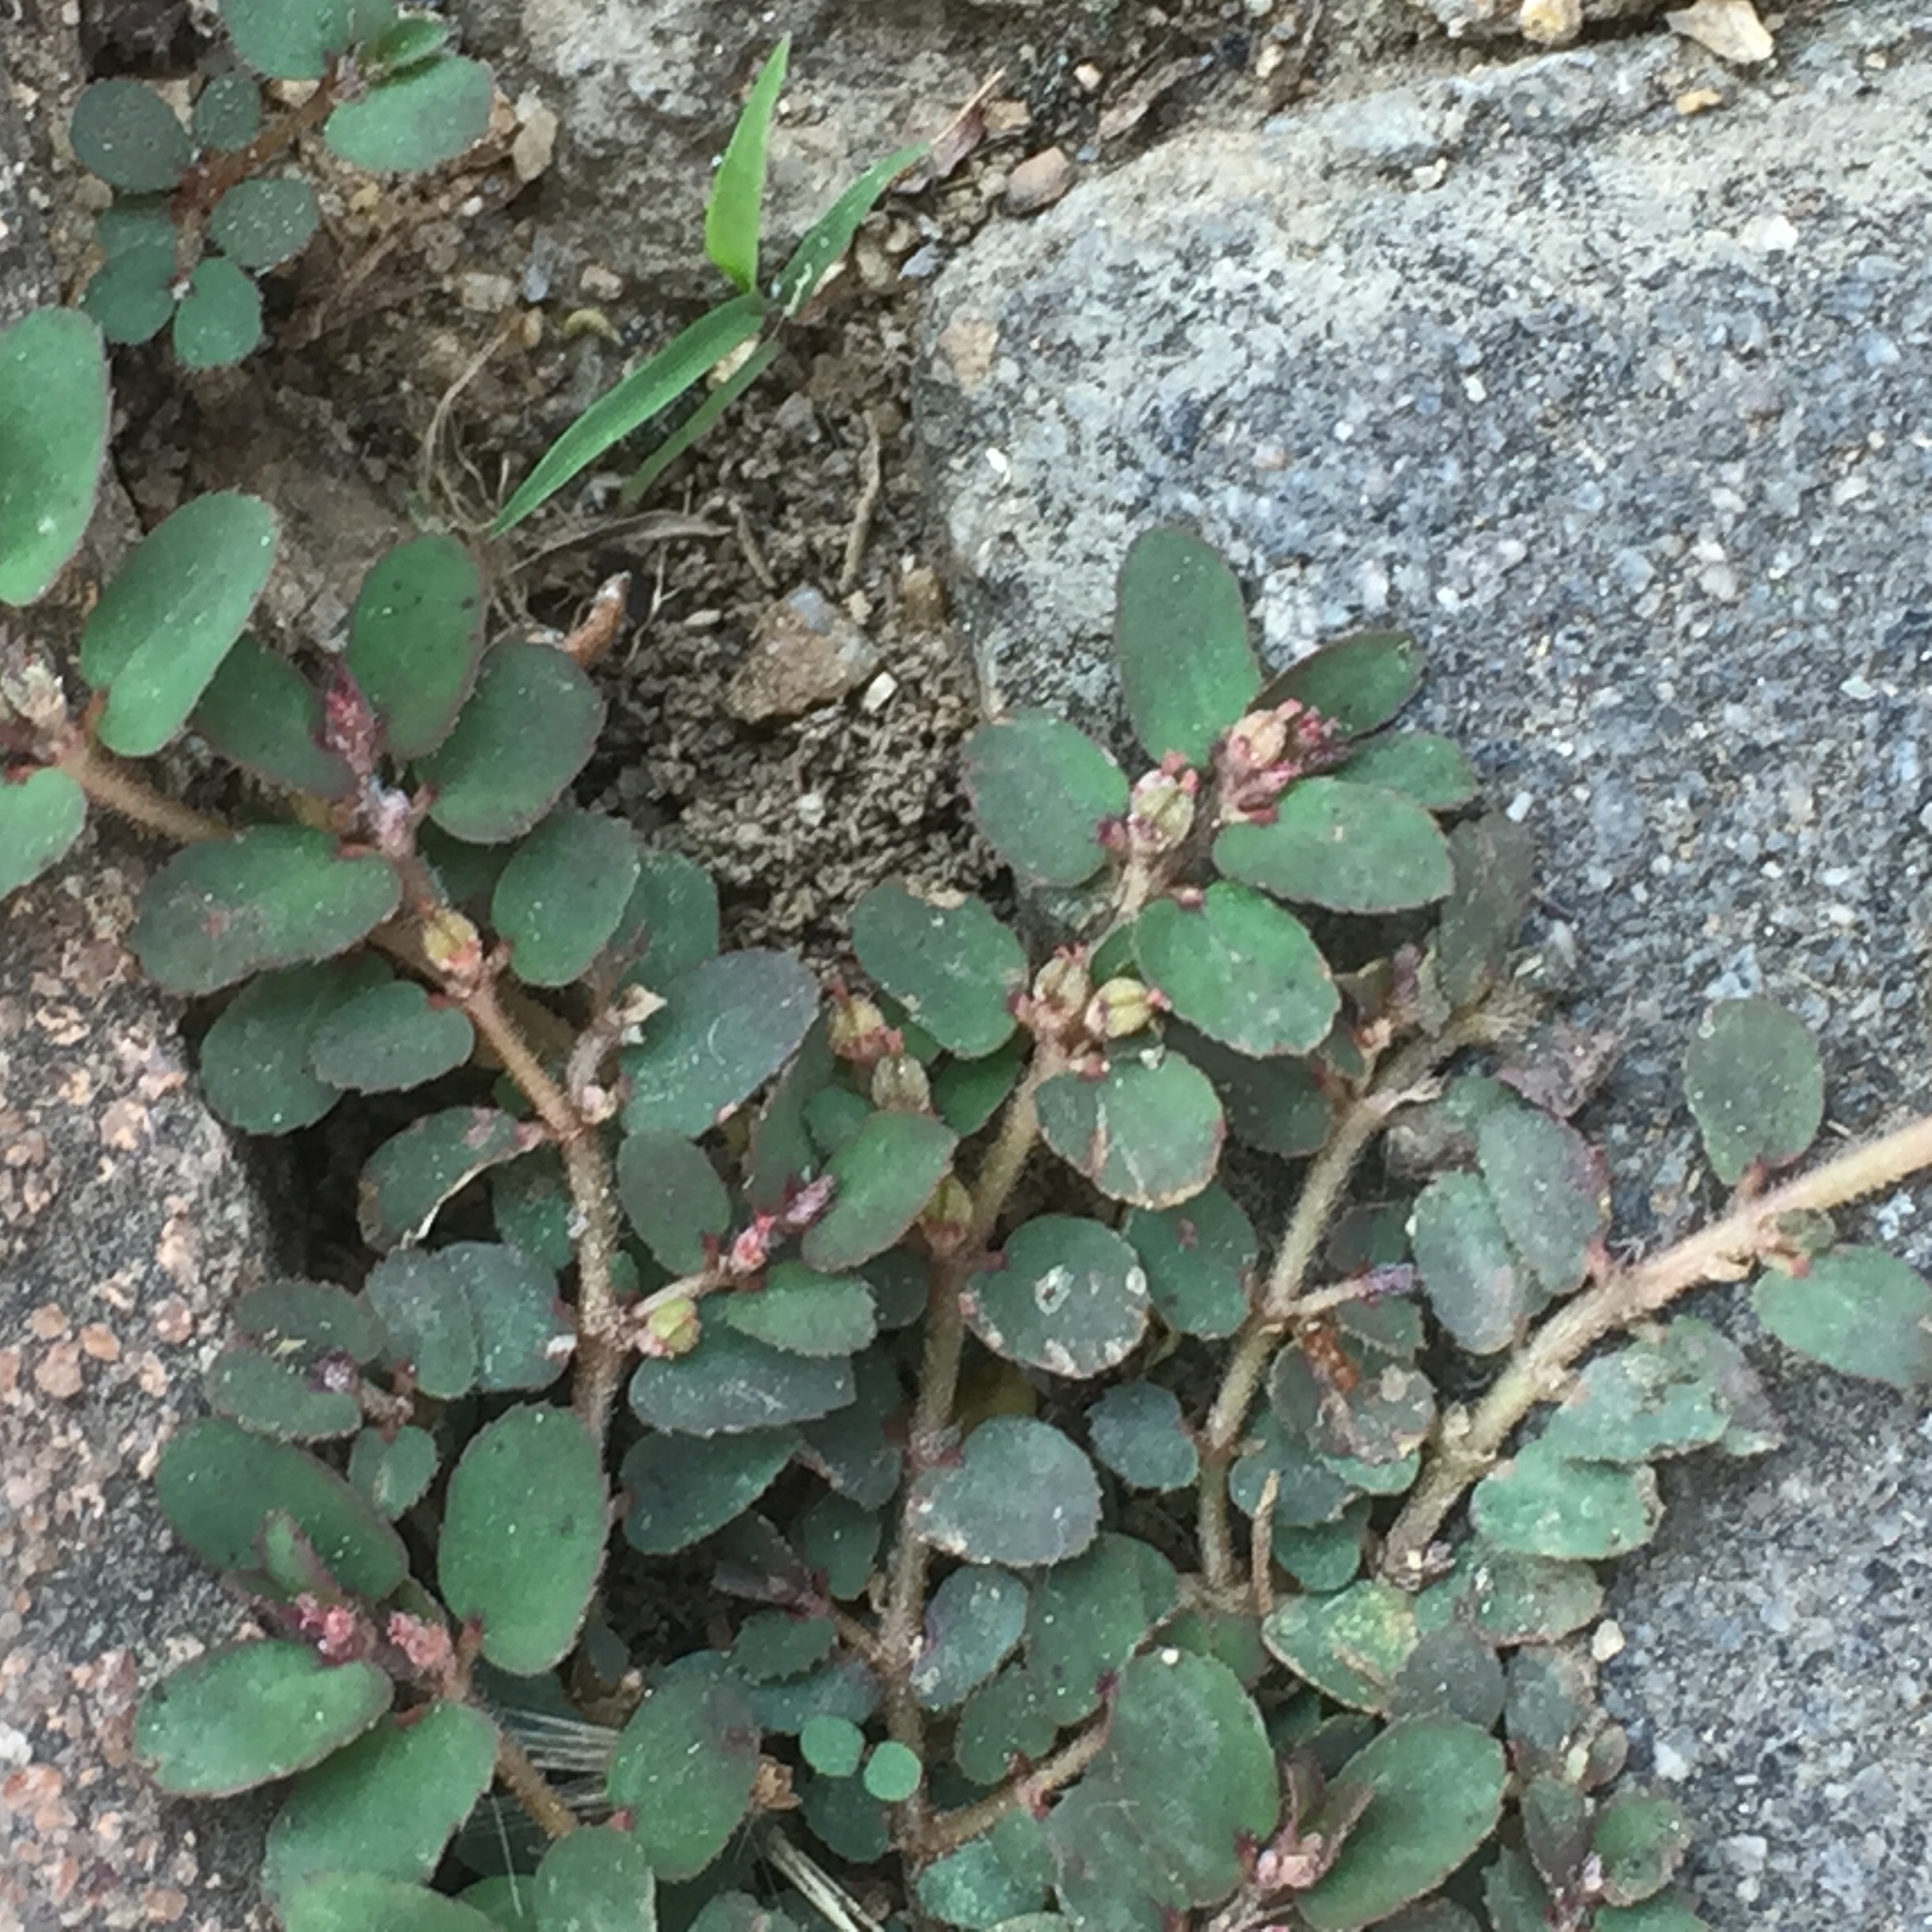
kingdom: Plantae
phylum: Tracheophyta
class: Magnoliopsida
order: Malpighiales
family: Euphorbiaceae
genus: Euphorbia
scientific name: Euphorbia thymifolia
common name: Gulf sandmat
